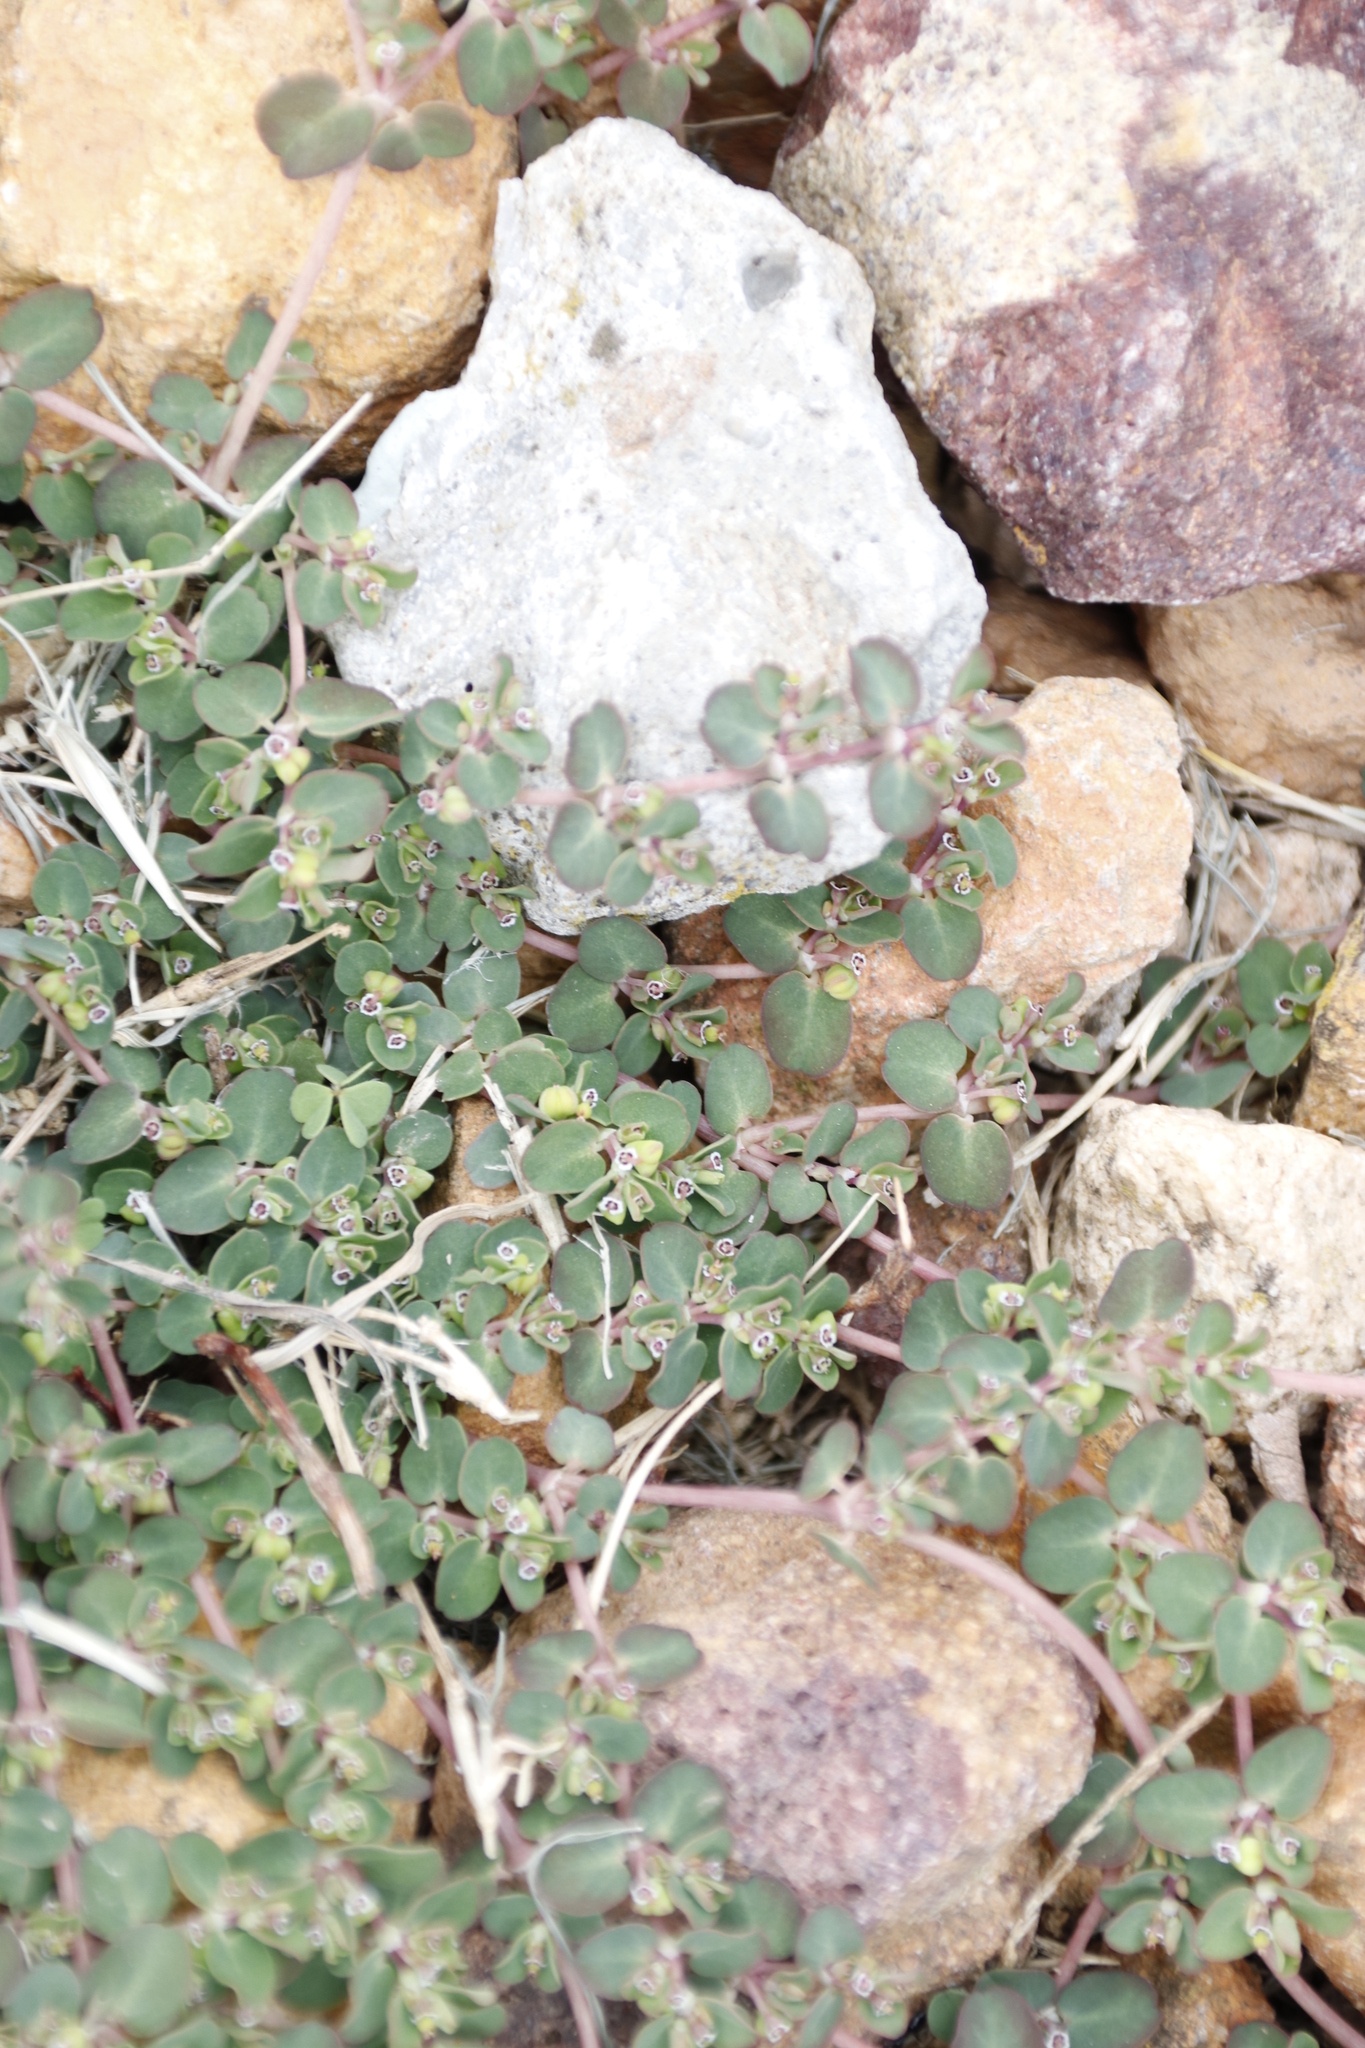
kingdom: Plantae
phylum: Tracheophyta
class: Magnoliopsida
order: Malpighiales
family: Euphorbiaceae
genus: Euphorbia
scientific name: Euphorbia serpens
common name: Matted sandmat
